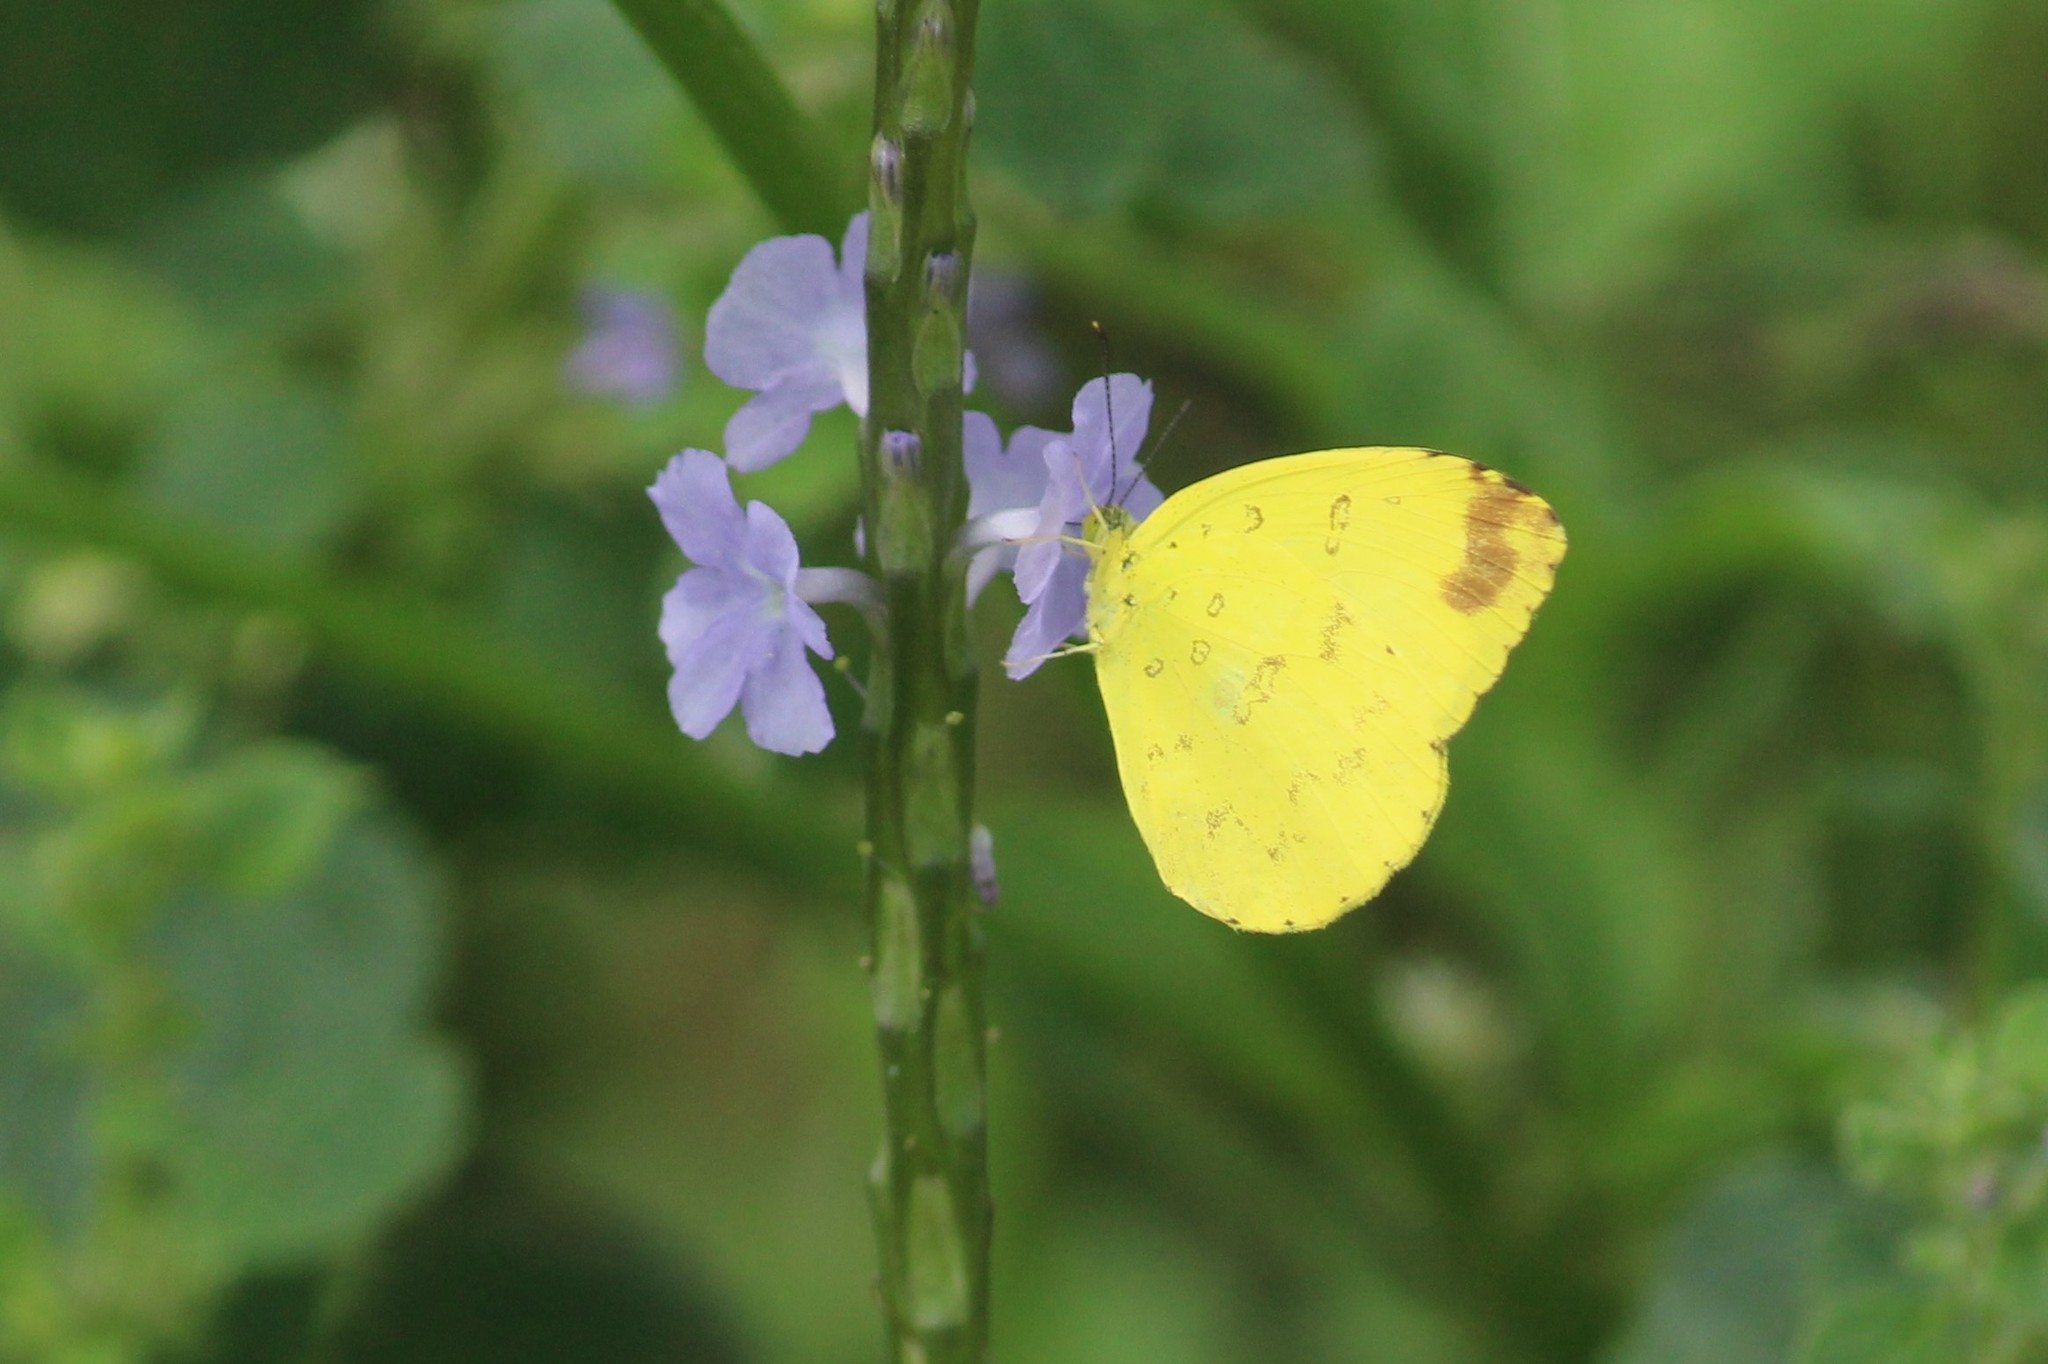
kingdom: Animalia
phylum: Arthropoda
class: Insecta
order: Lepidoptera
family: Pieridae
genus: Eurema
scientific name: Eurema blanda
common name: Three-spot grass yellow
